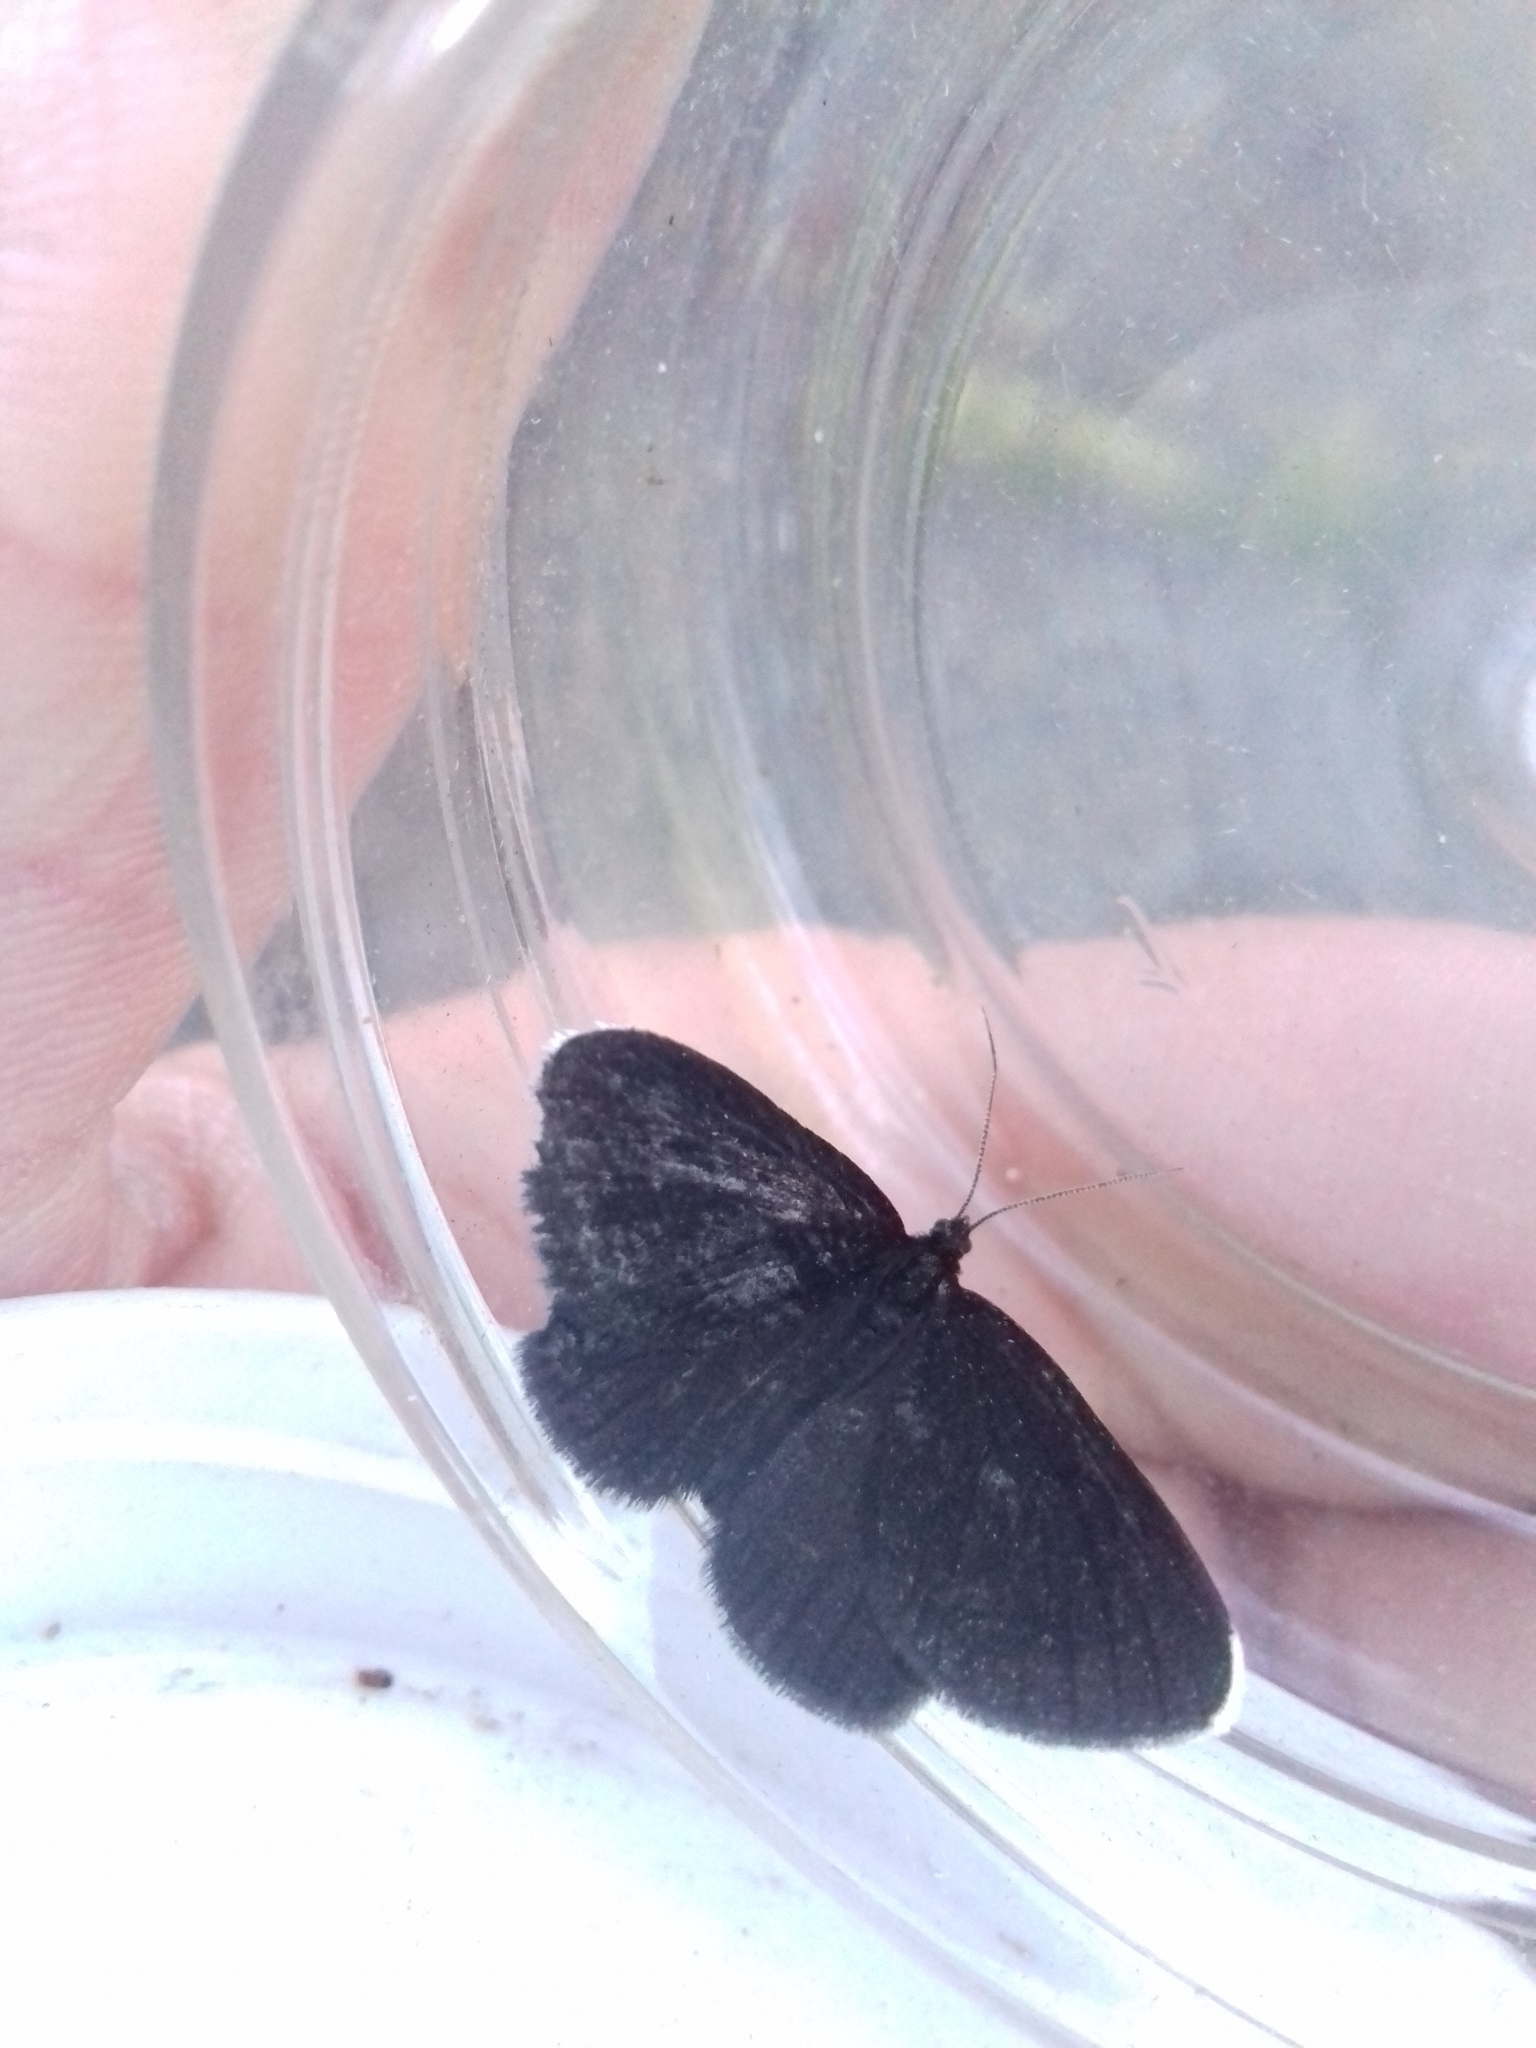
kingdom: Animalia
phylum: Arthropoda
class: Insecta
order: Lepidoptera
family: Geometridae
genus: Odezia
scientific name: Odezia atrata
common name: Chimney sweeper
